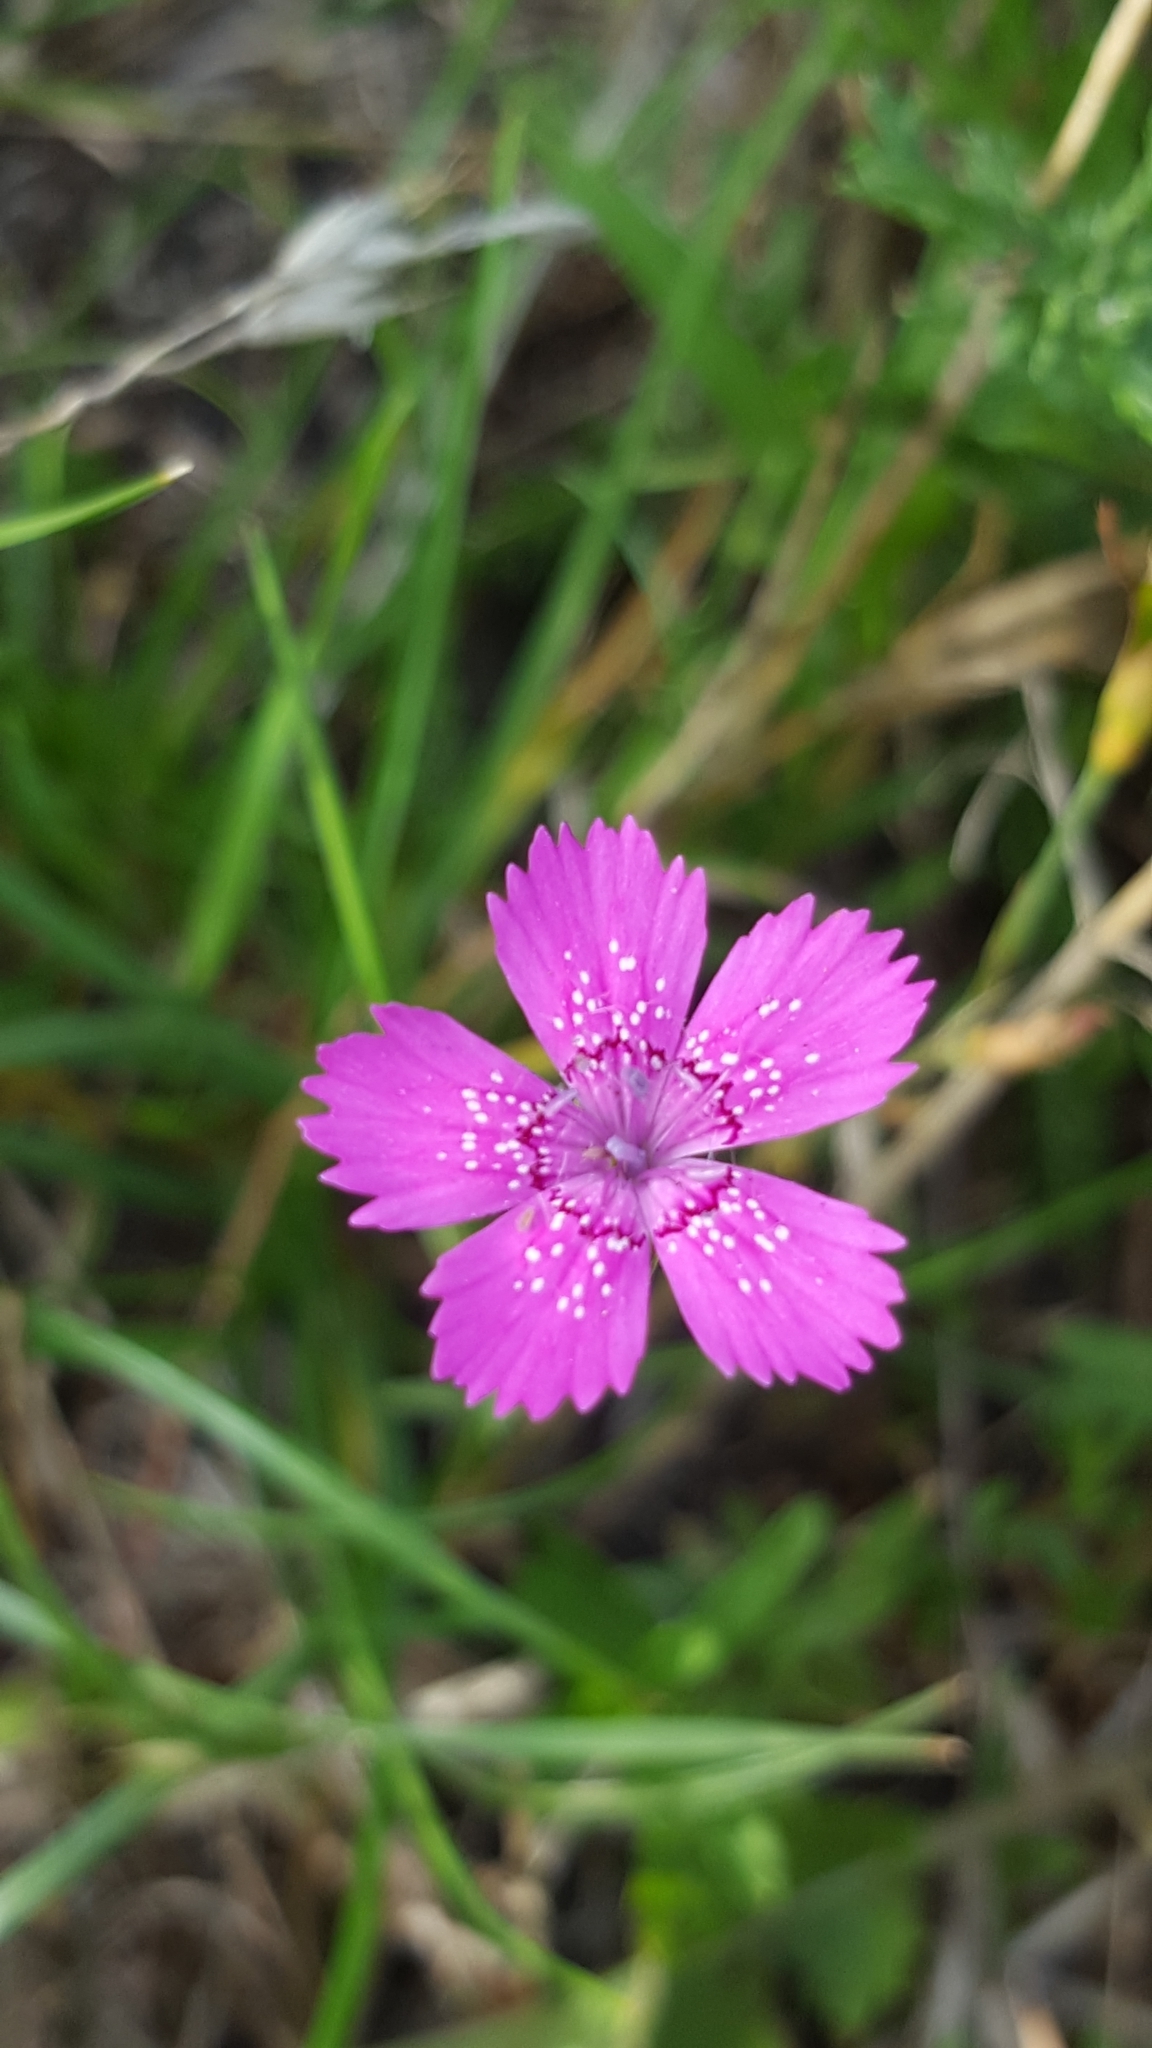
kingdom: Plantae
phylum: Tracheophyta
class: Magnoliopsida
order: Caryophyllales
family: Caryophyllaceae
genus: Dianthus
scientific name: Dianthus deltoides
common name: Maiden pink
